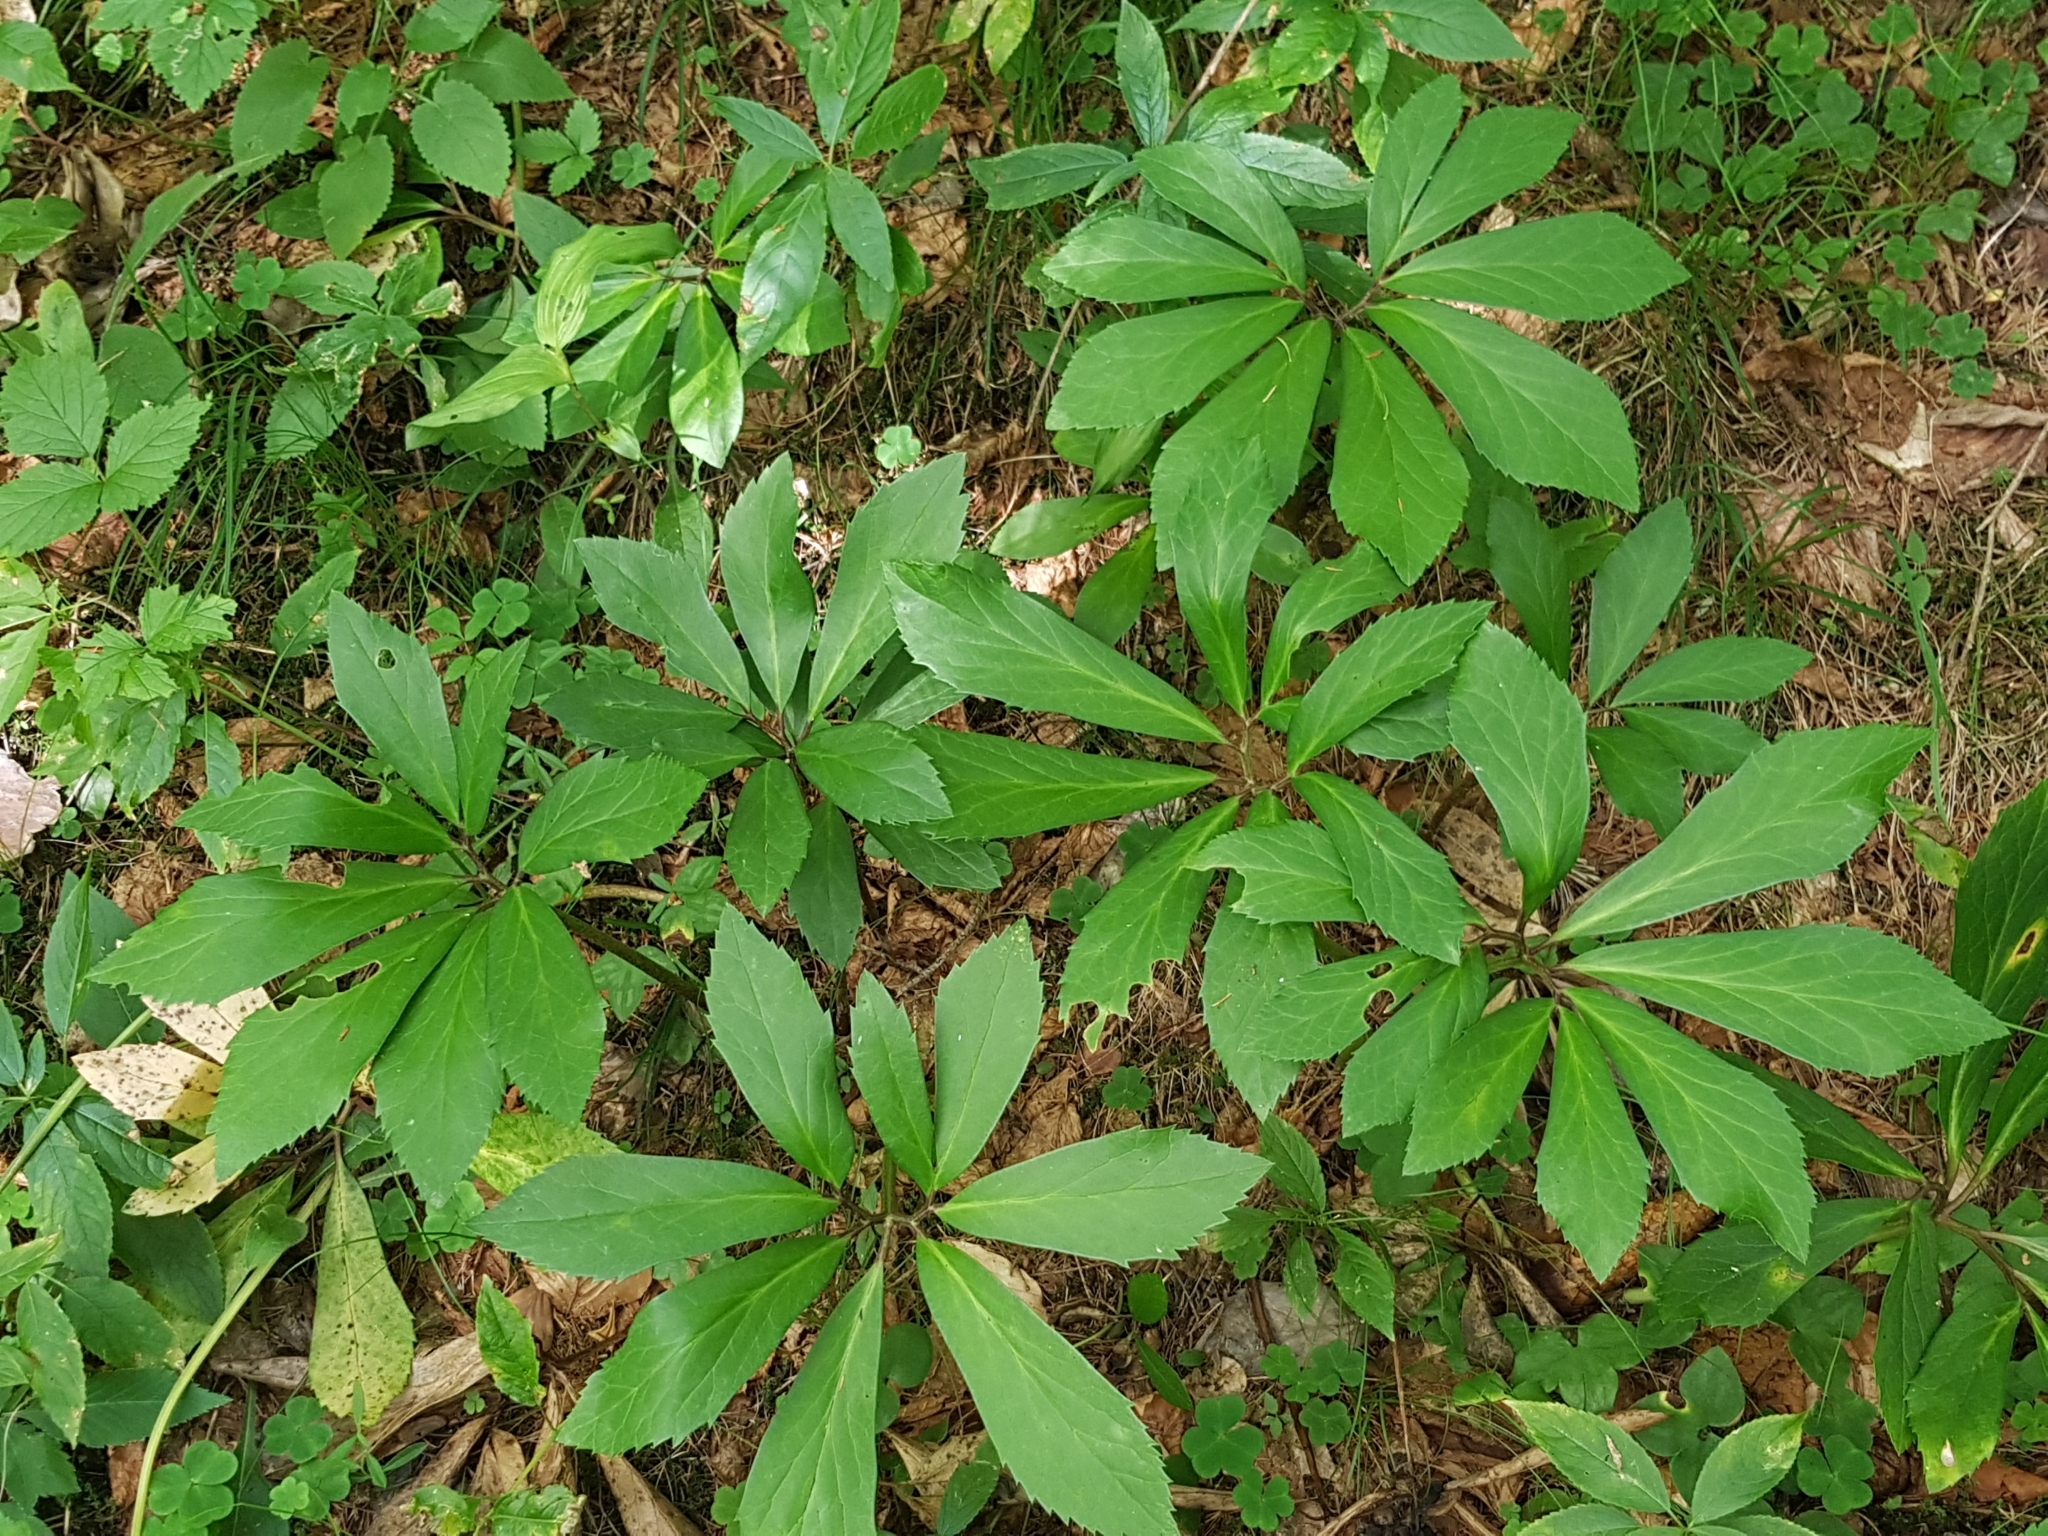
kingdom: Plantae
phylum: Tracheophyta
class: Magnoliopsida
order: Ranunculales
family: Ranunculaceae
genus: Helleborus
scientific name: Helleborus niger
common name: Black hellebore
